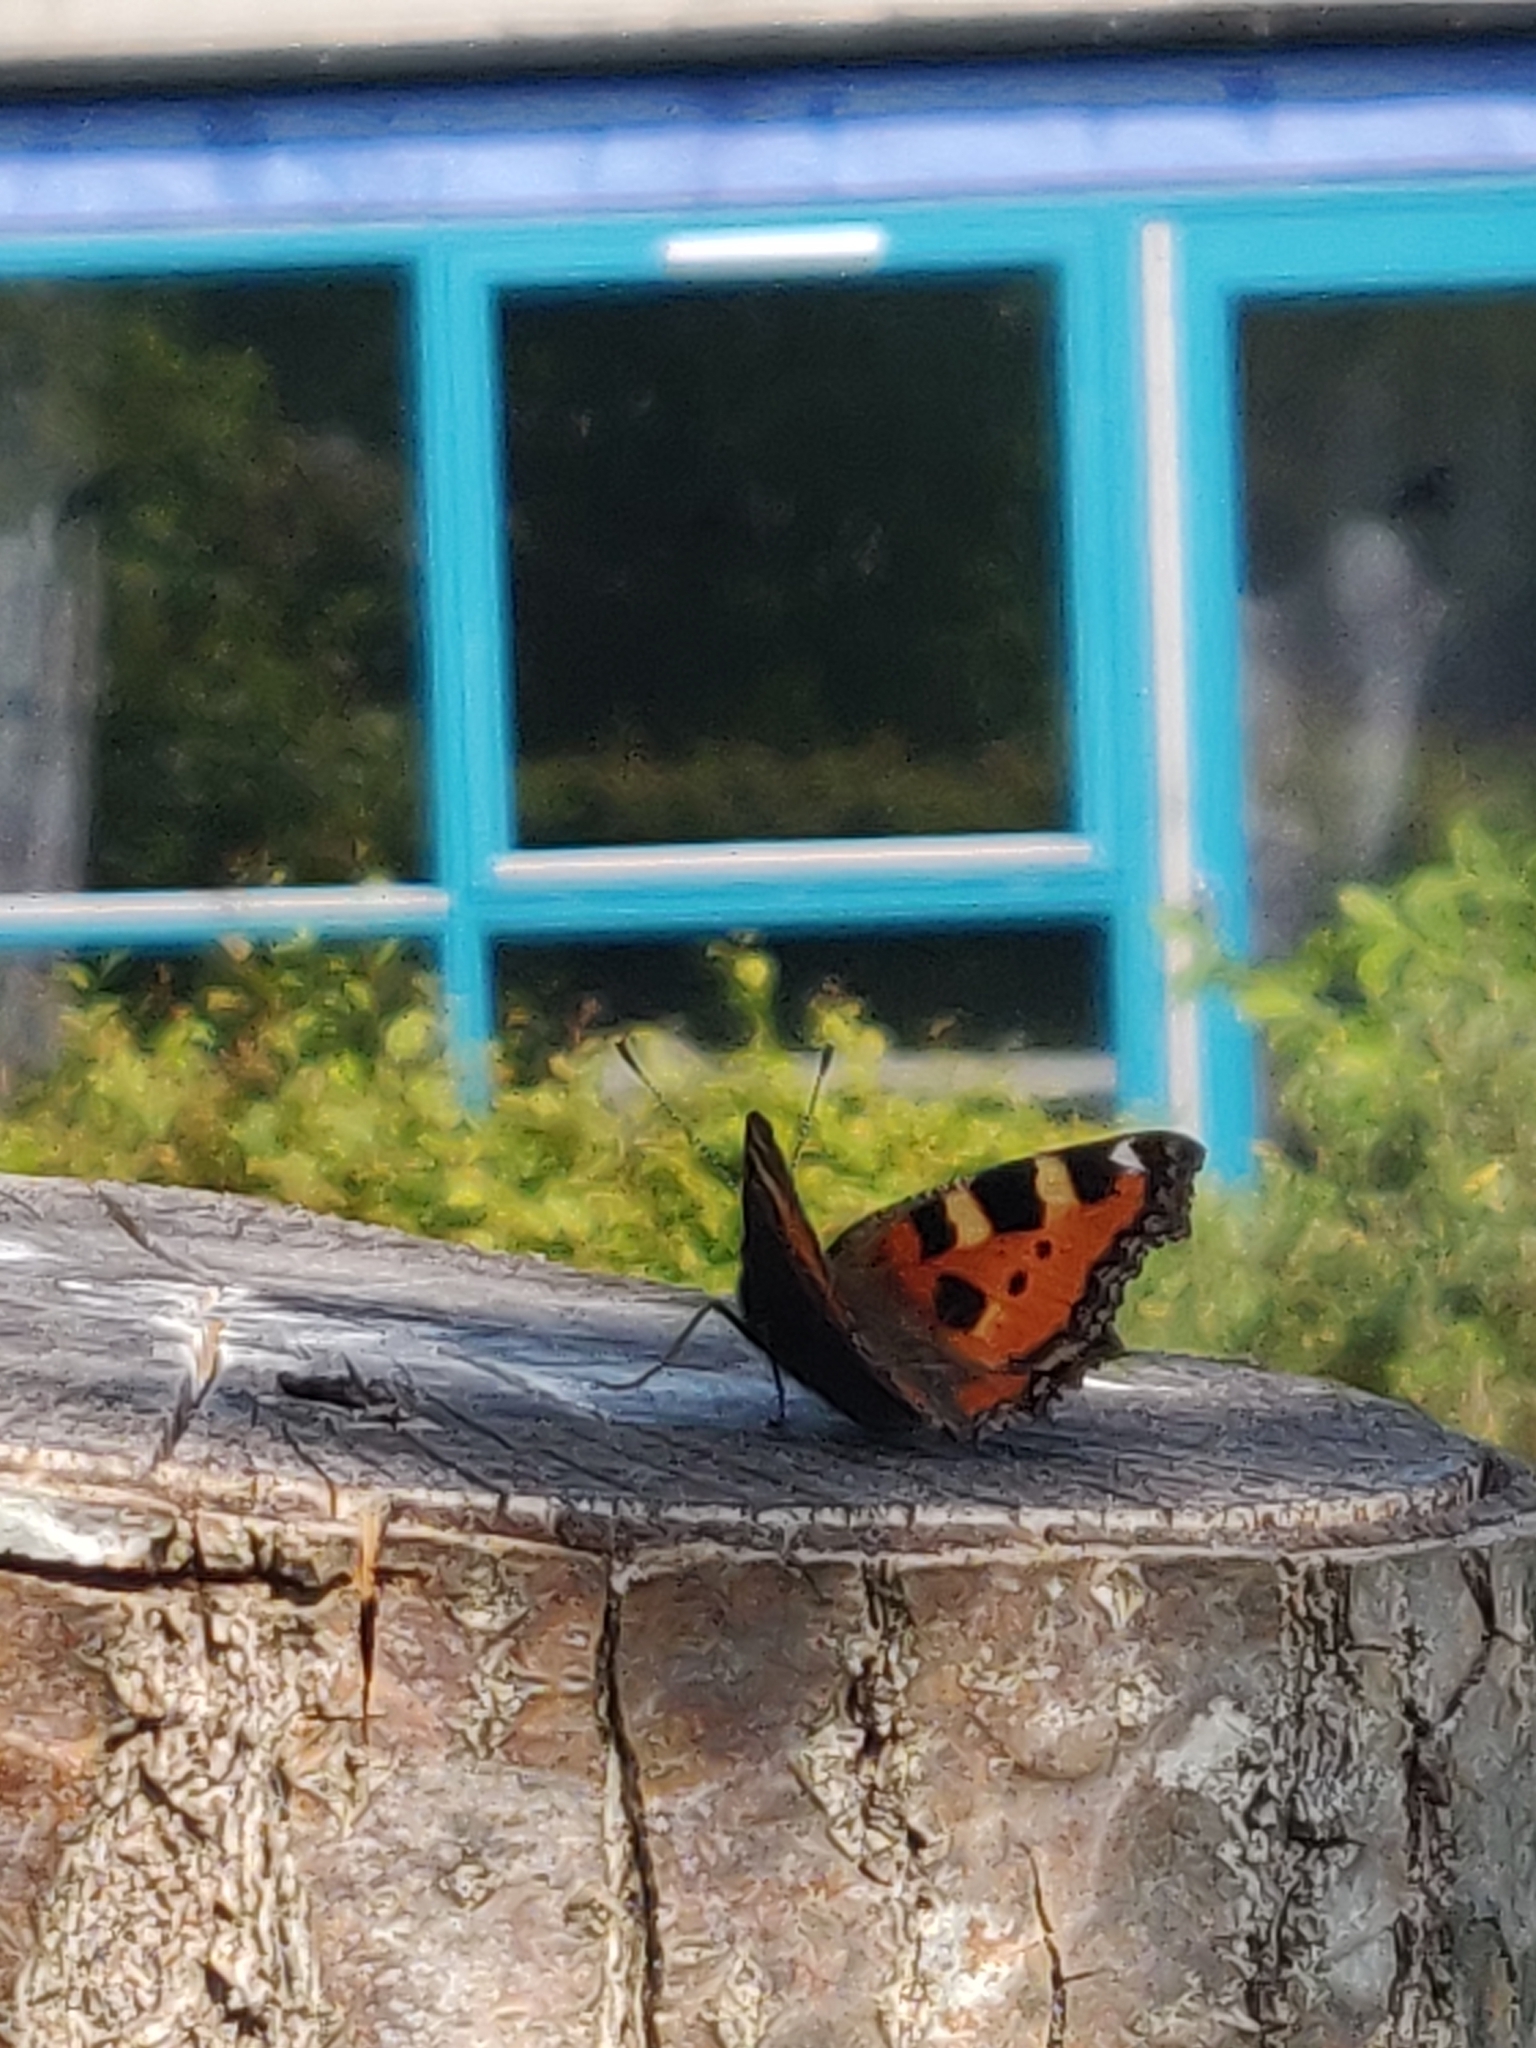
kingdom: Animalia
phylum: Arthropoda
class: Insecta
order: Lepidoptera
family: Nymphalidae
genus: Aglais
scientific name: Aglais urticae
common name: Small tortoiseshell
